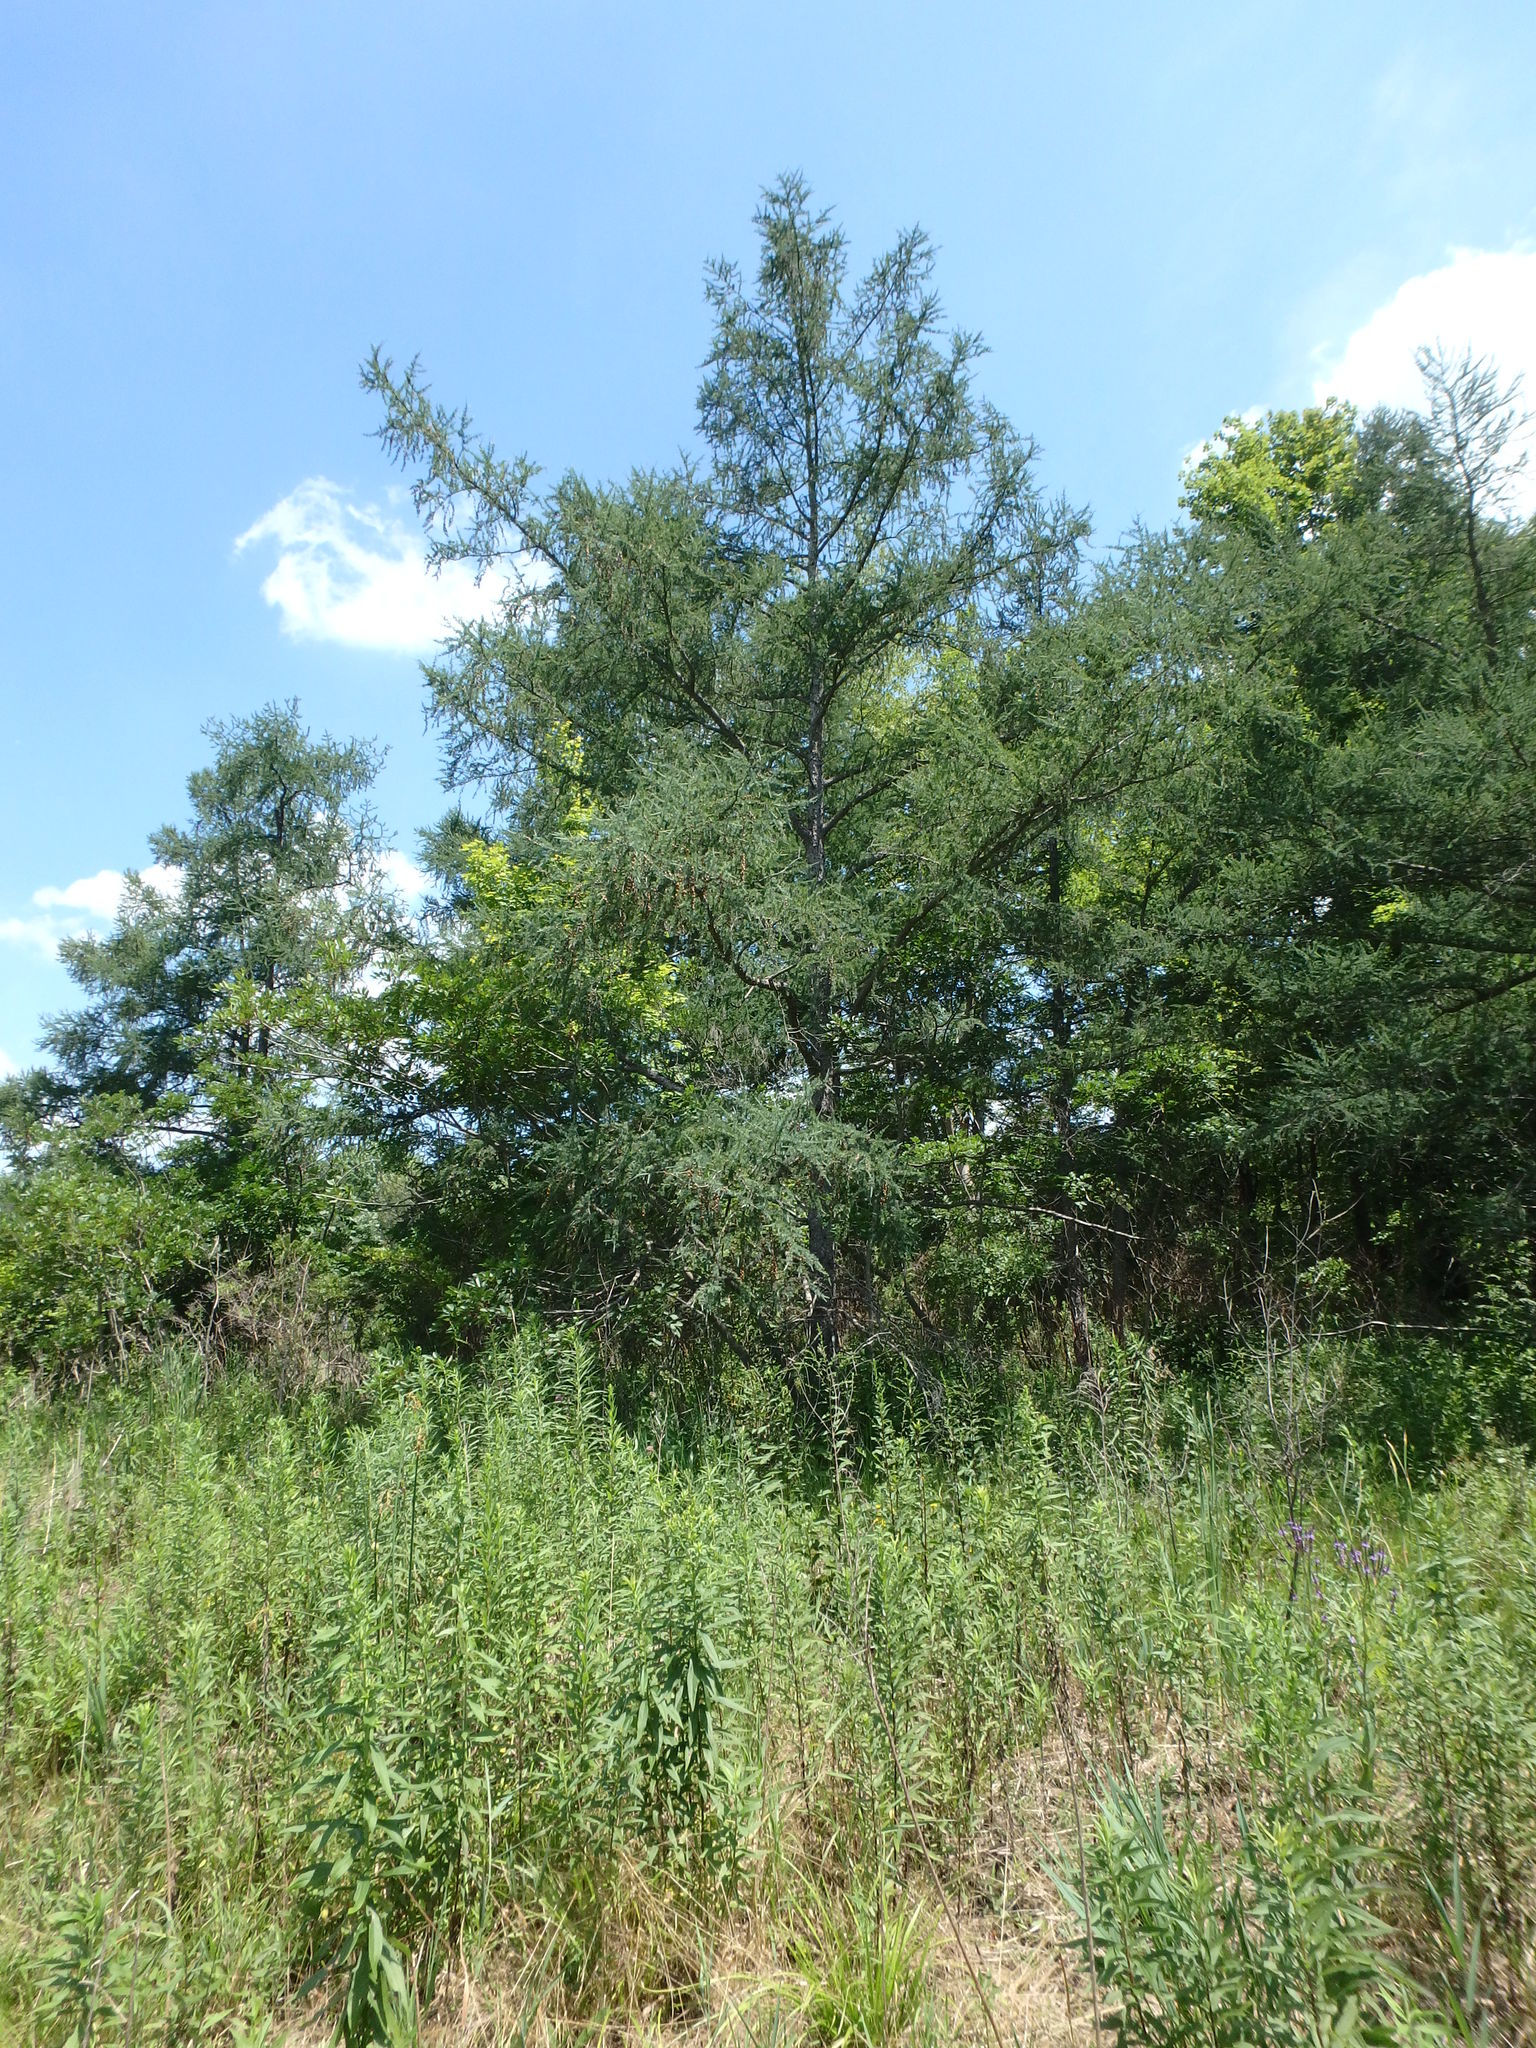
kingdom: Plantae
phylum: Tracheophyta
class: Pinopsida
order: Pinales
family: Pinaceae
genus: Larix
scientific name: Larix laricina
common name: American larch
